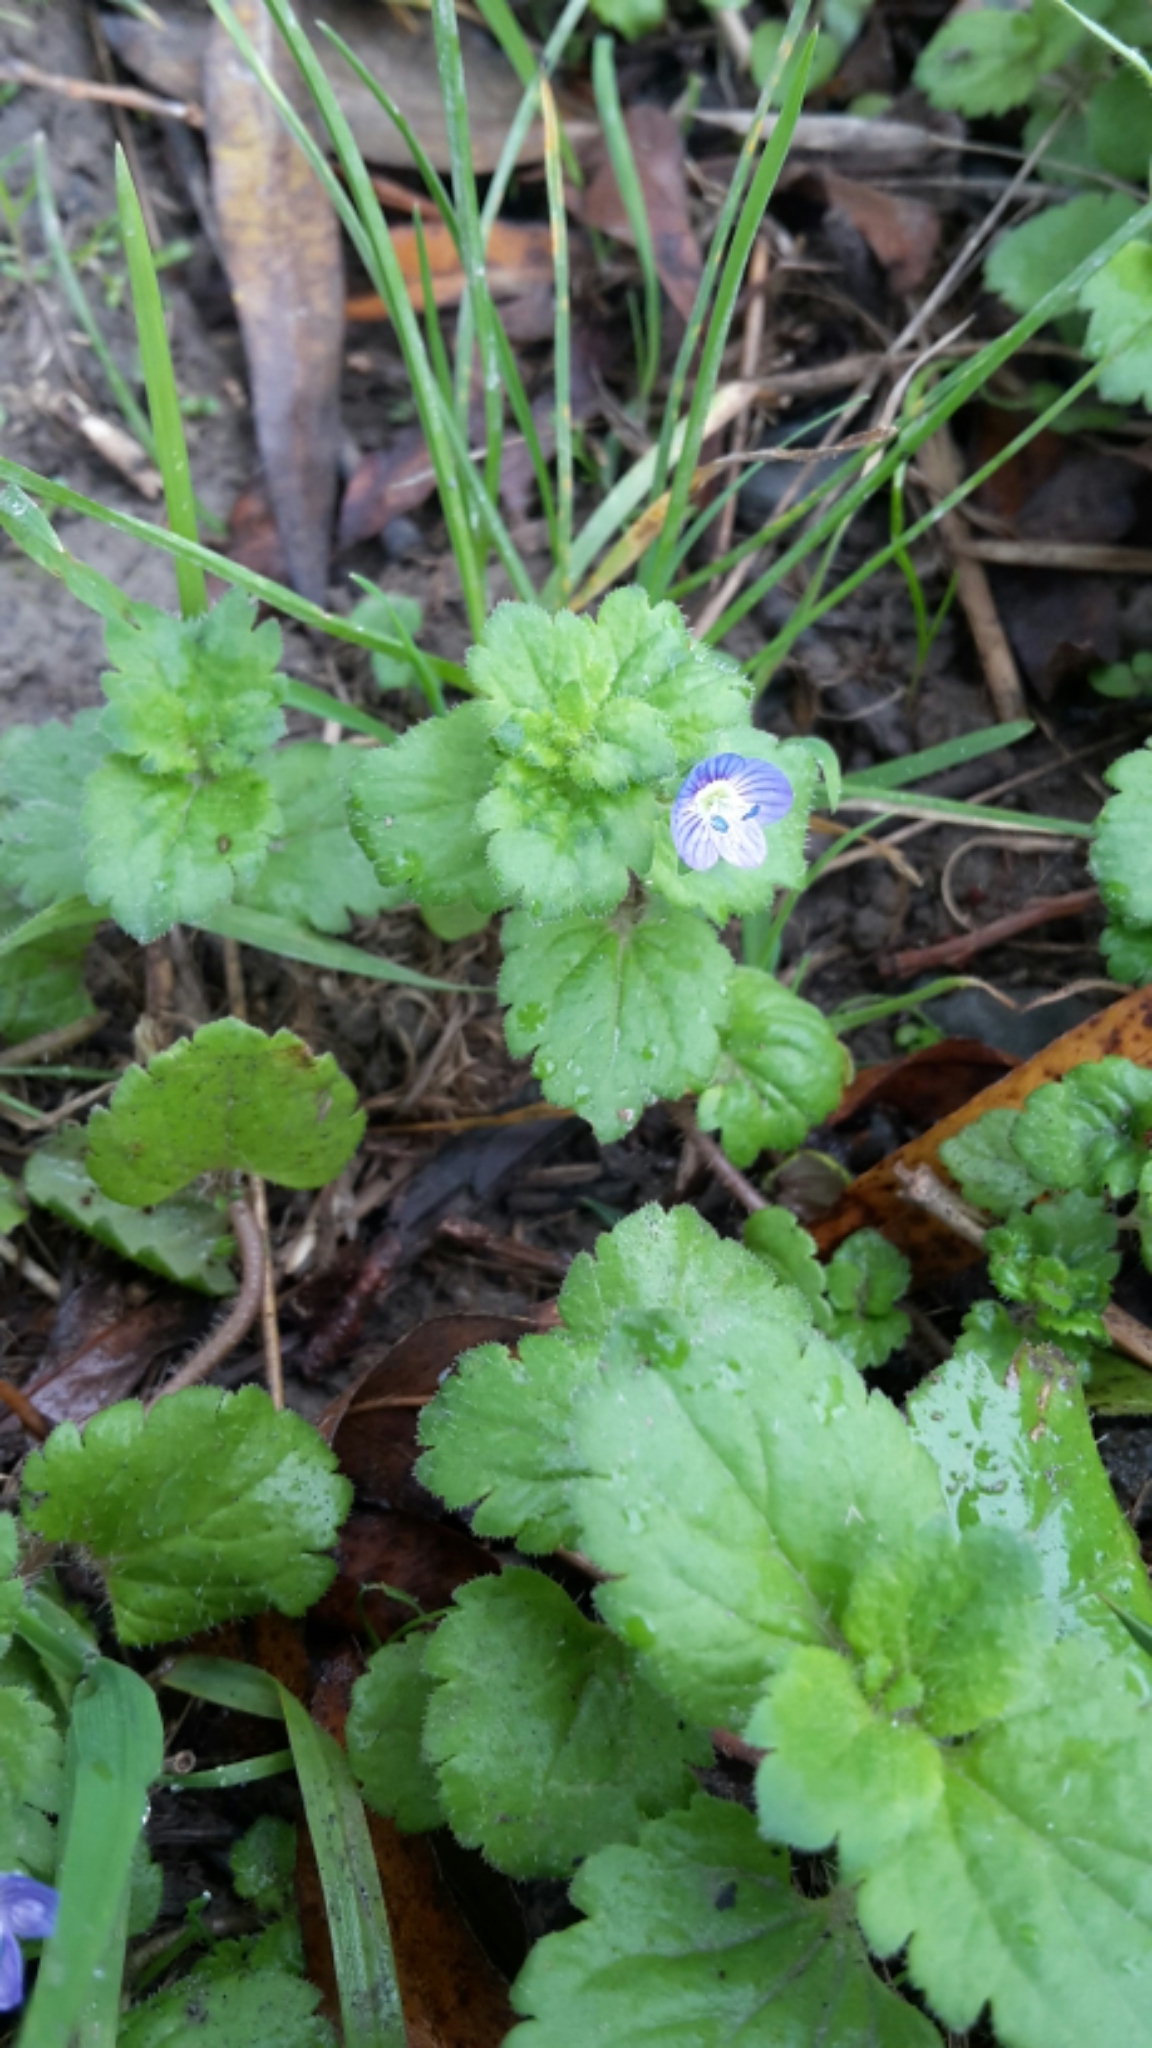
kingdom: Plantae
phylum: Tracheophyta
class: Magnoliopsida
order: Lamiales
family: Plantaginaceae
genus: Veronica
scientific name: Veronica persica
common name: Common field-speedwell
